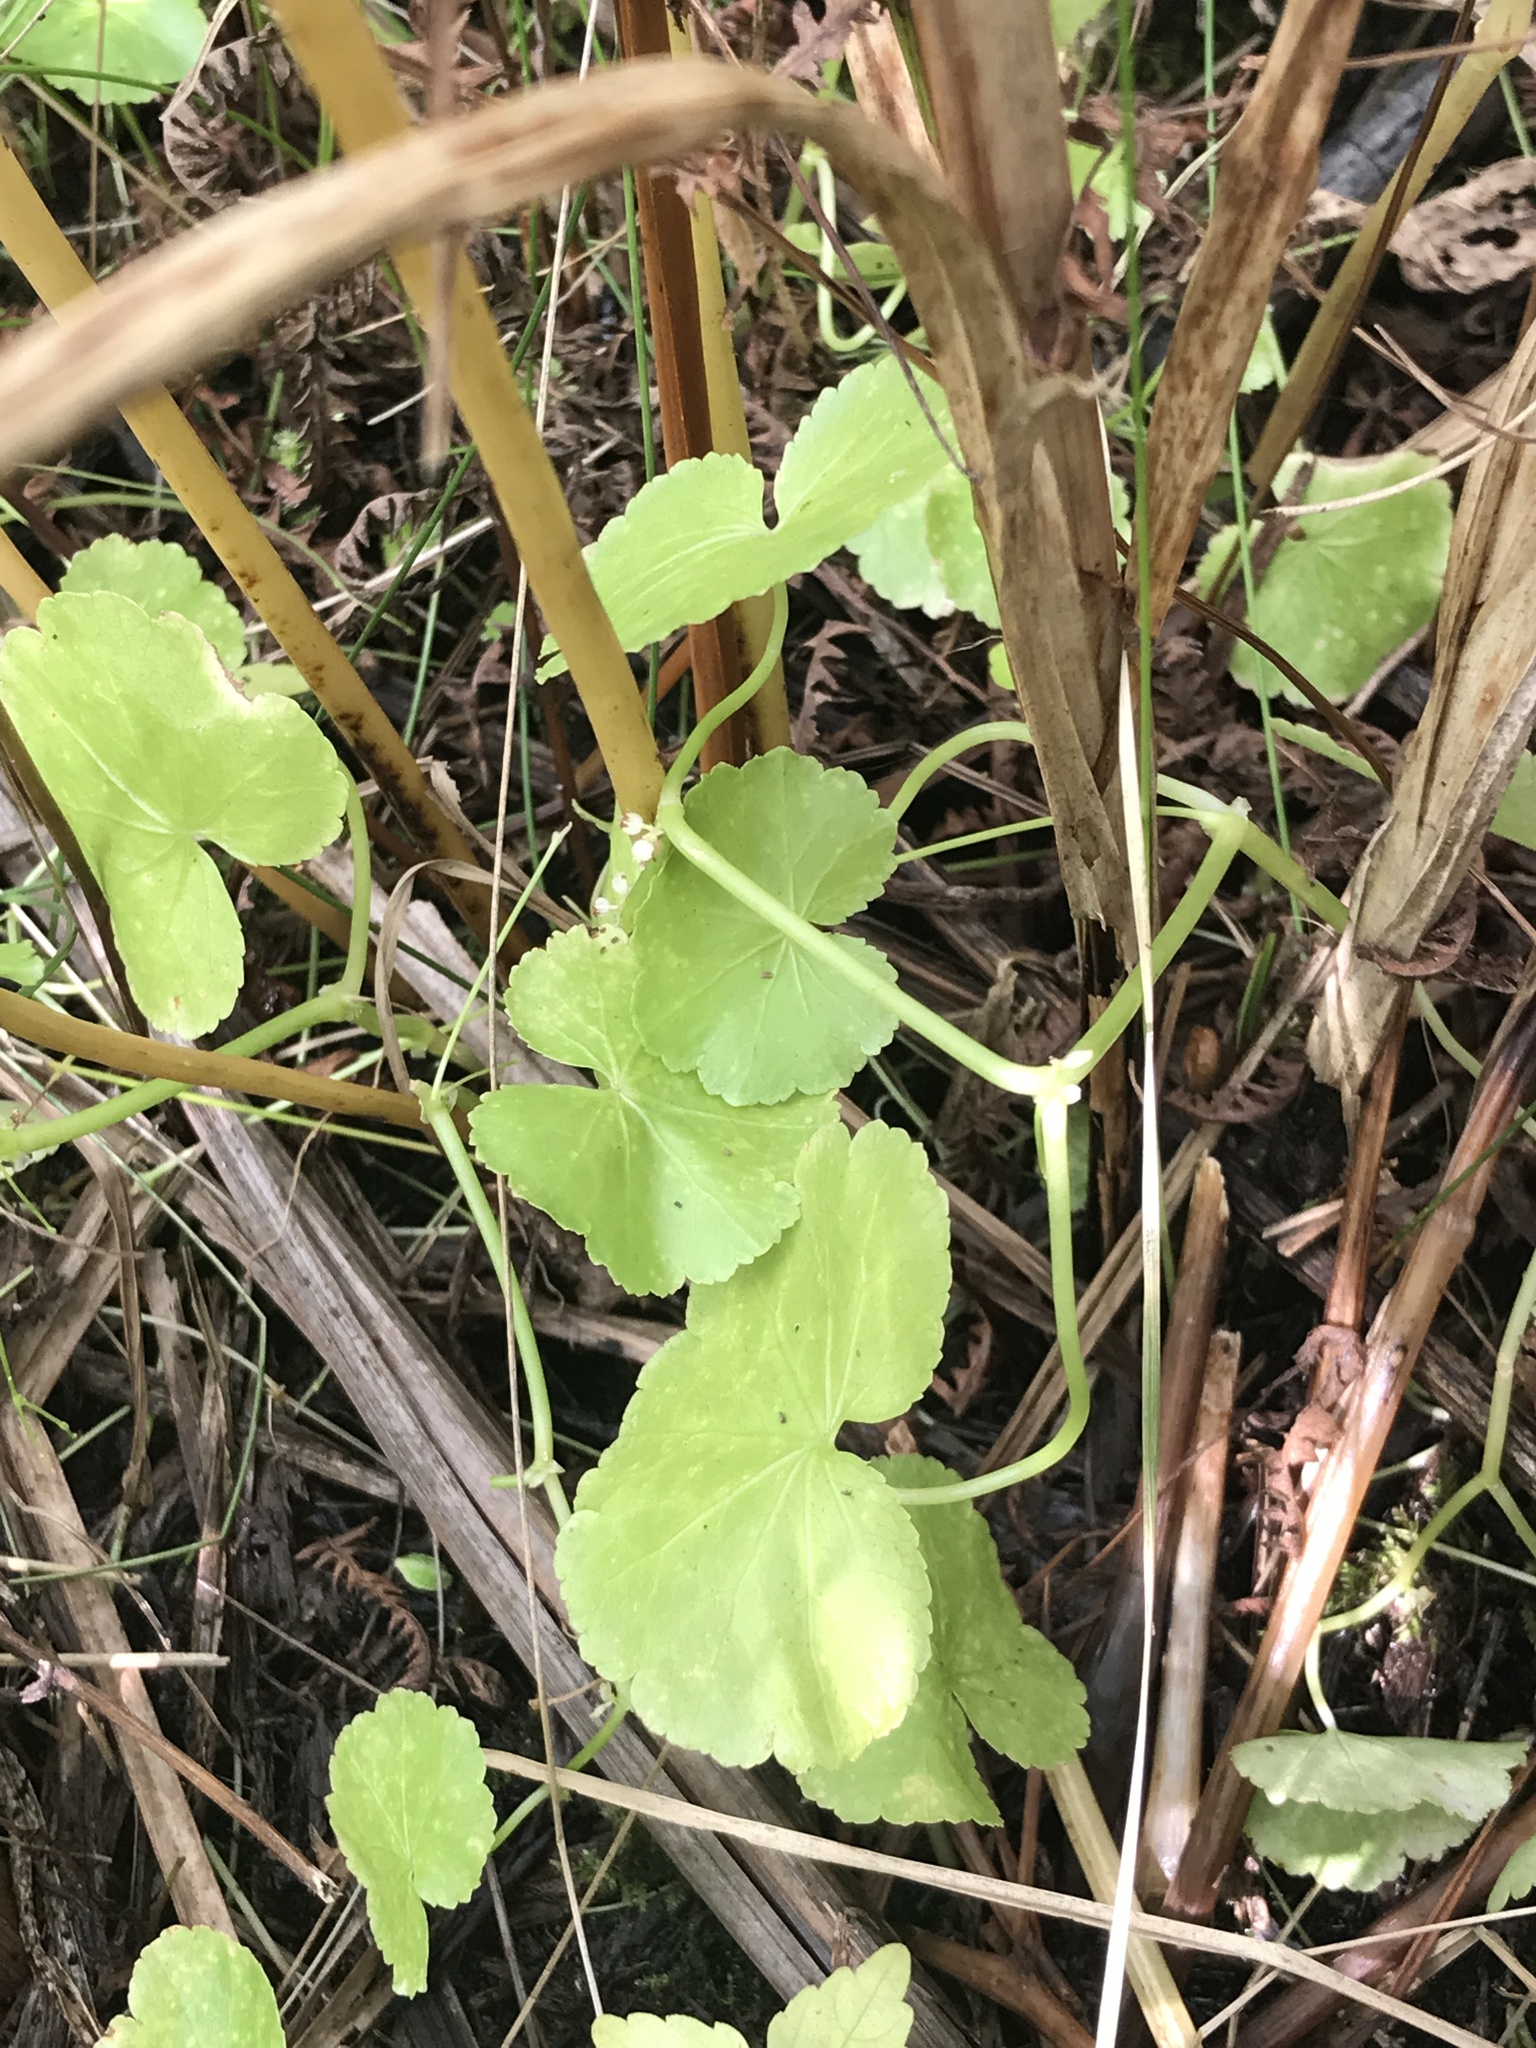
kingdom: Plantae
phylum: Tracheophyta
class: Magnoliopsida
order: Apiales
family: Araliaceae
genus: Hydrocotyle
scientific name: Hydrocotyle americana
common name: American water-pennywort
